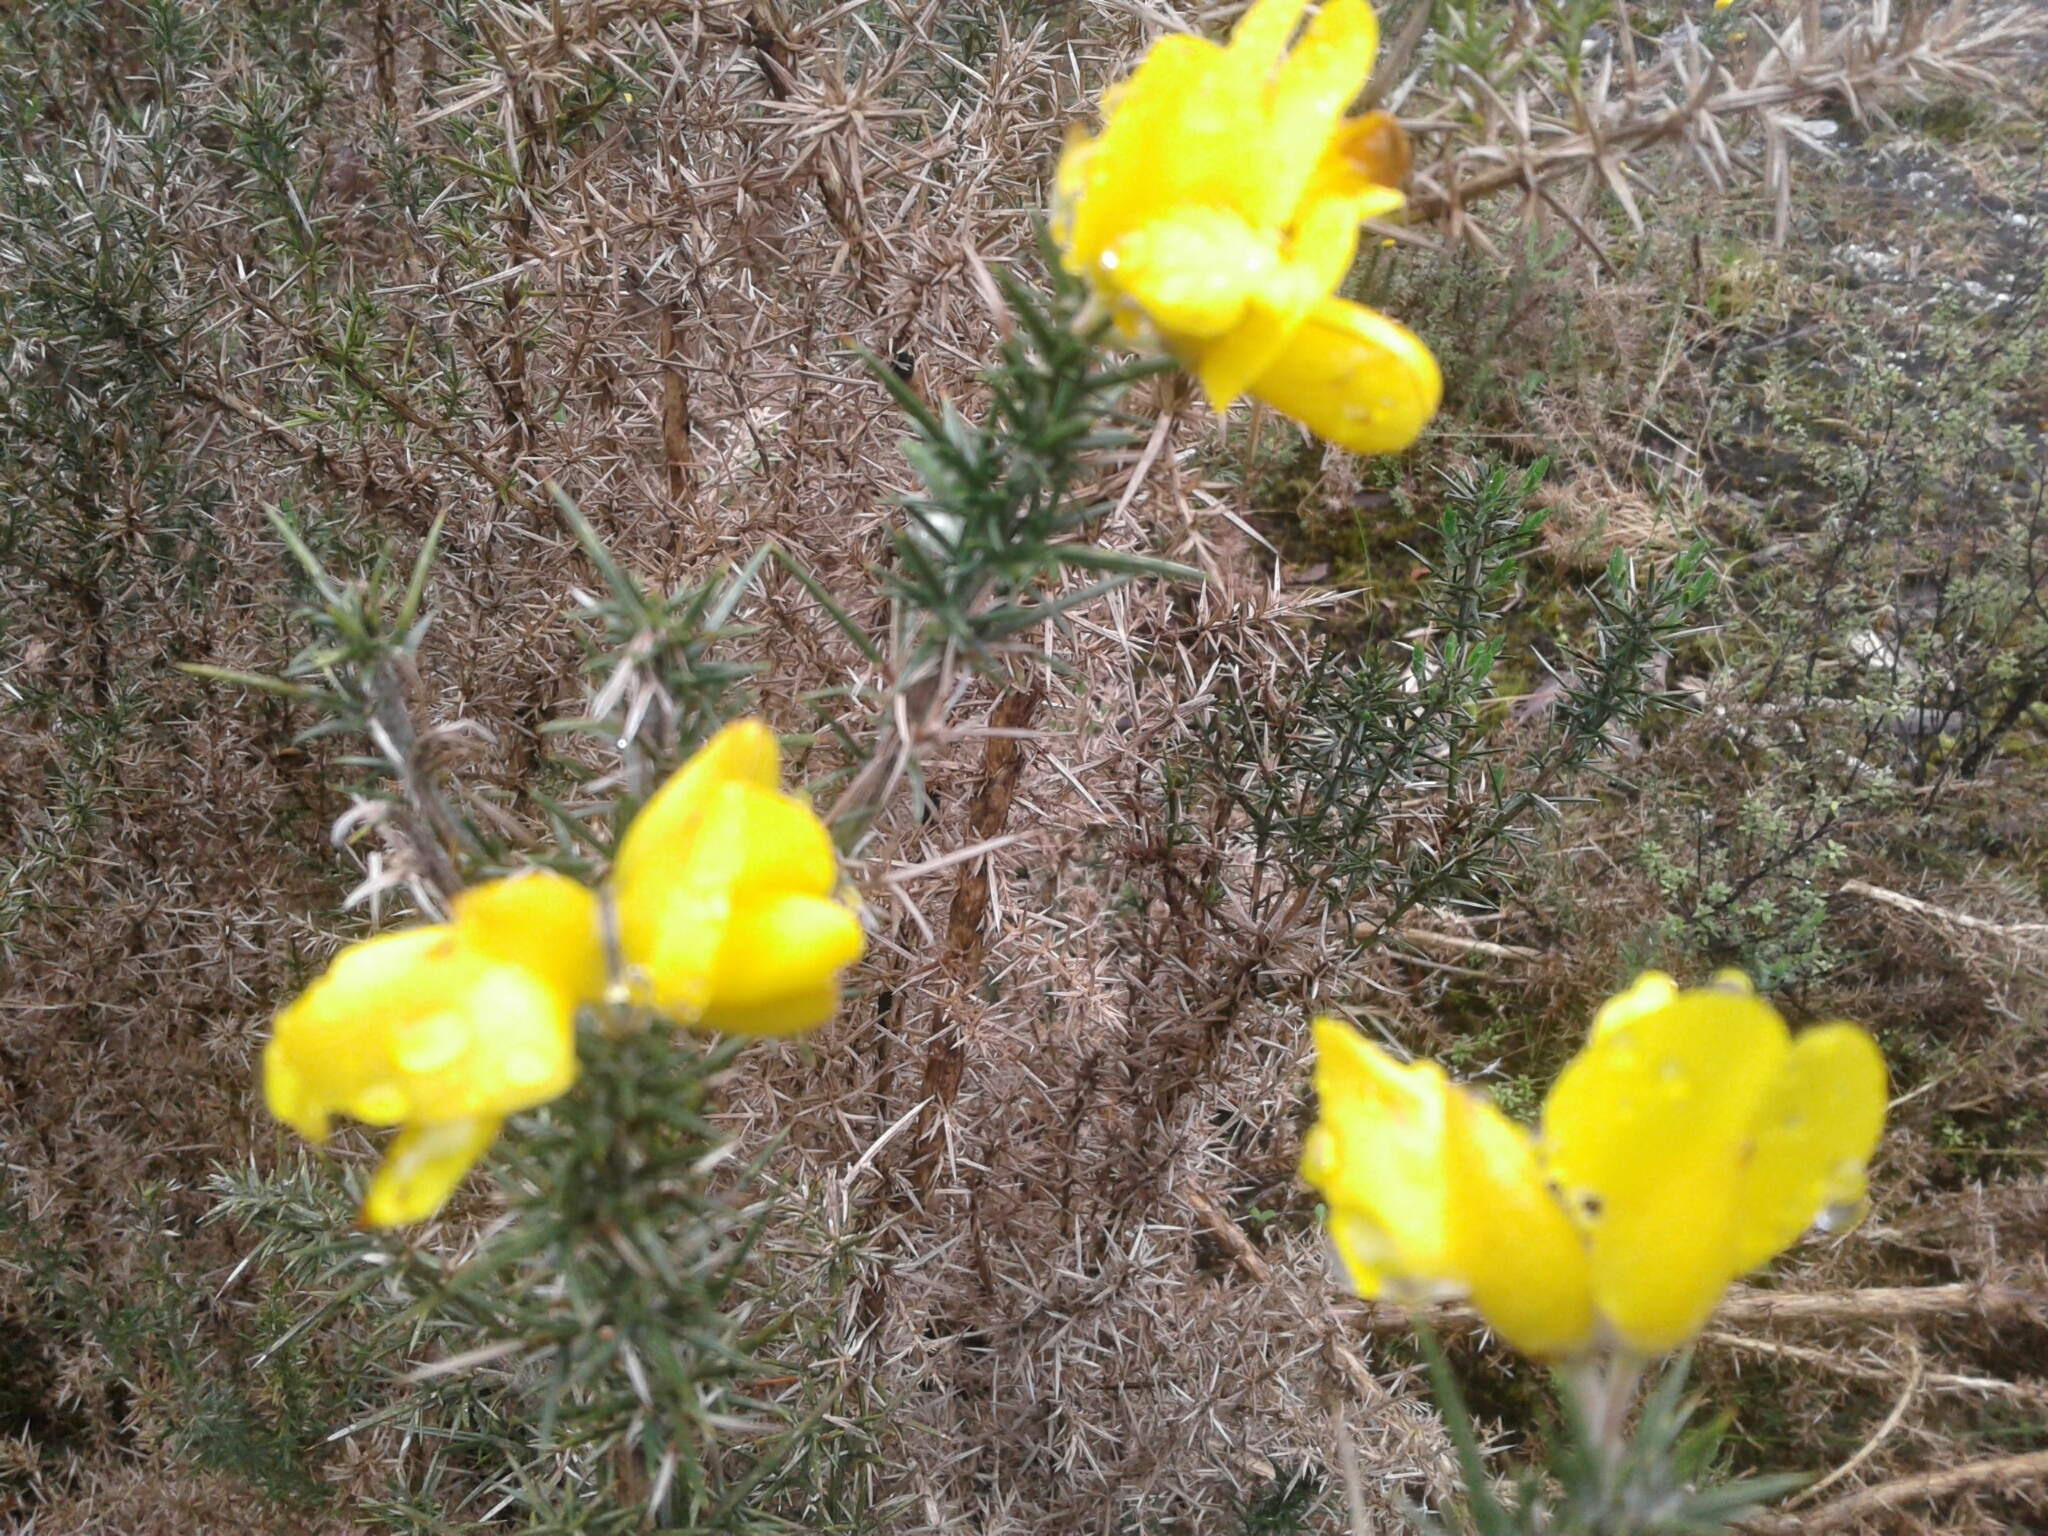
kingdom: Plantae
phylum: Tracheophyta
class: Magnoliopsida
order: Fabales
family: Fabaceae
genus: Ulex
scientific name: Ulex europaeus
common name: Common gorse
